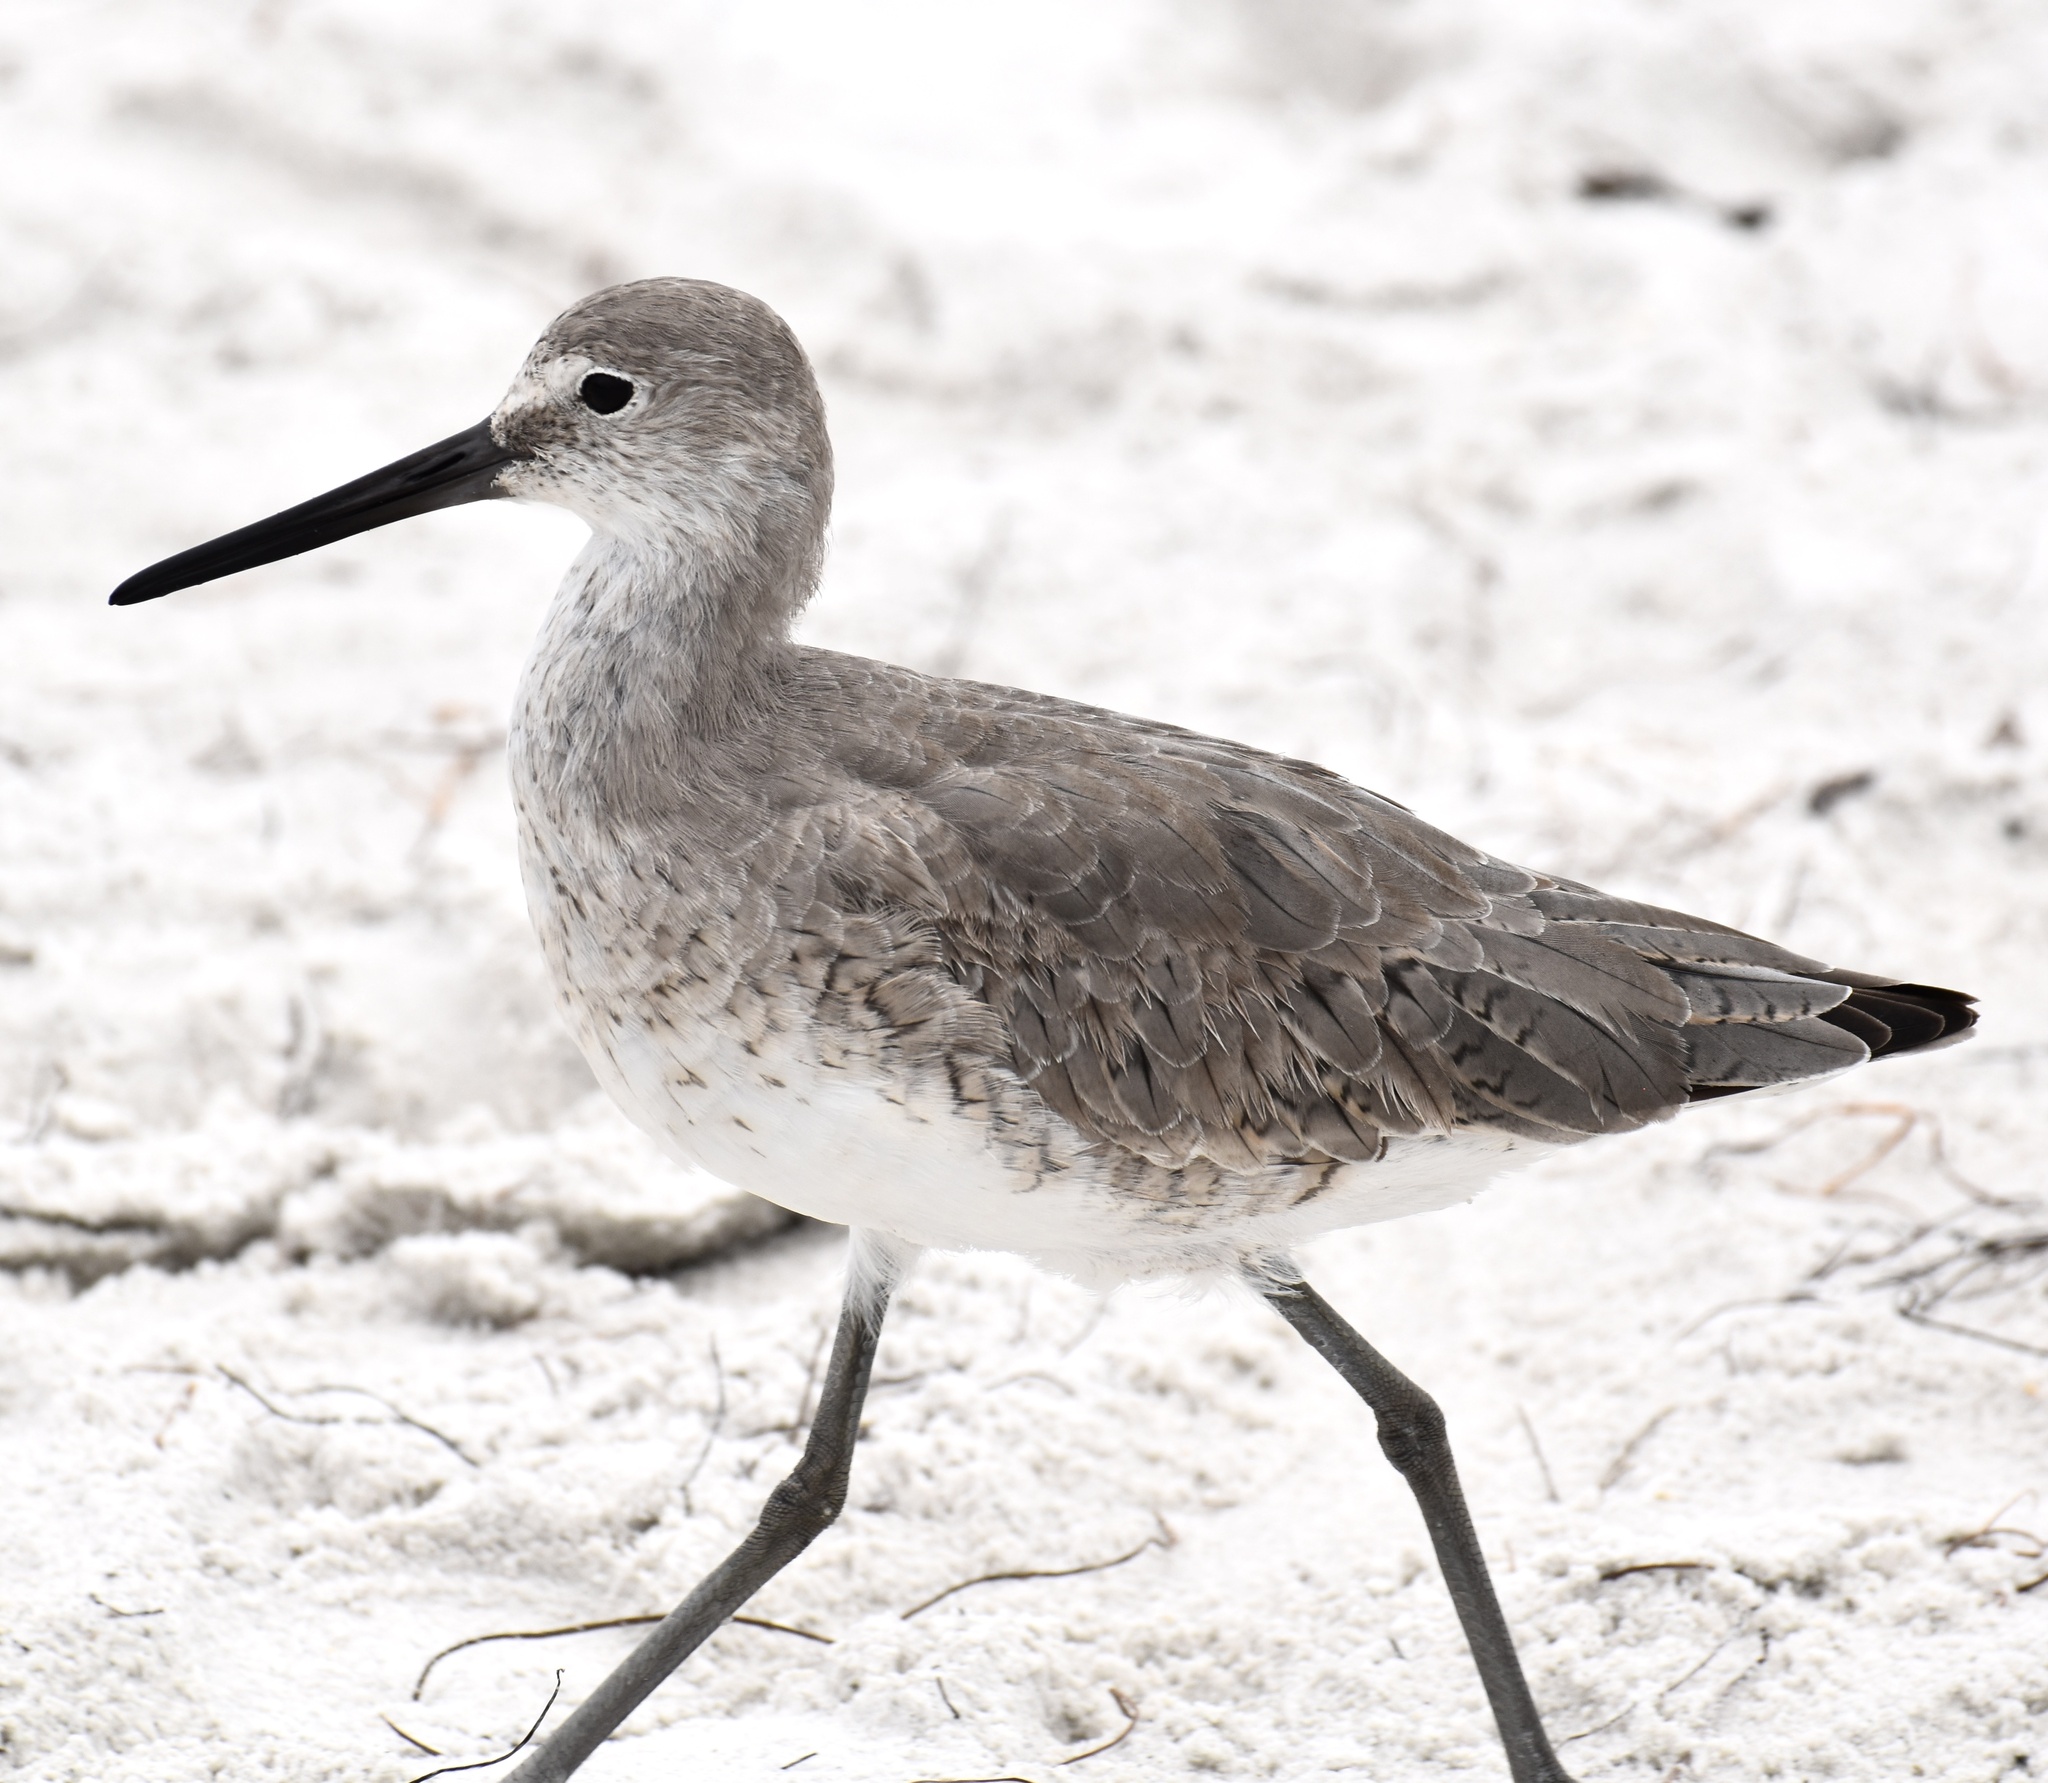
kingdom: Animalia
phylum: Chordata
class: Aves
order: Charadriiformes
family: Scolopacidae
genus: Tringa
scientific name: Tringa semipalmata
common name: Willet
